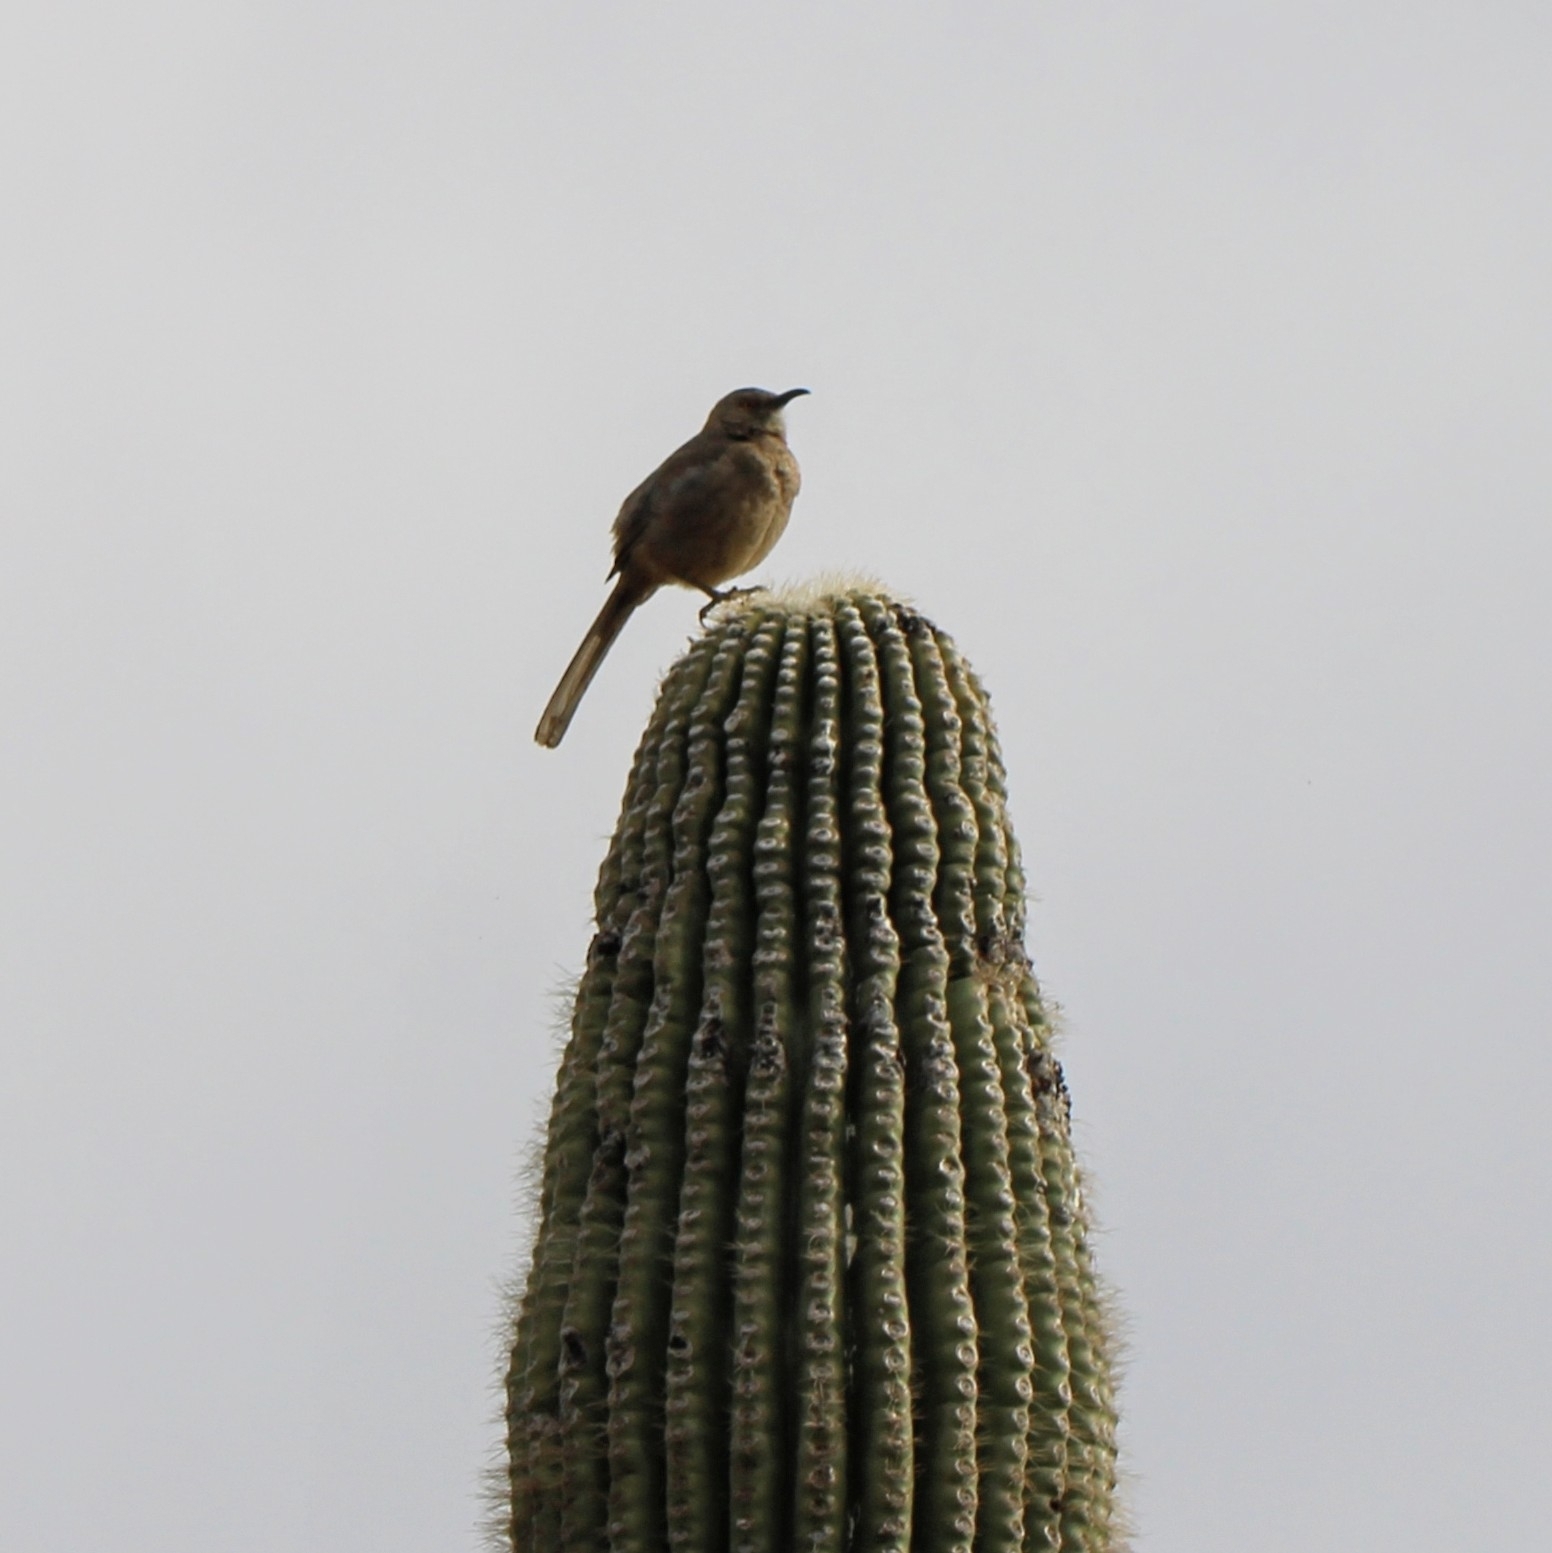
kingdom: Animalia
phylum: Chordata
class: Aves
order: Passeriformes
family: Mimidae
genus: Toxostoma
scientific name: Toxostoma curvirostre
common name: Curve-billed thrasher
